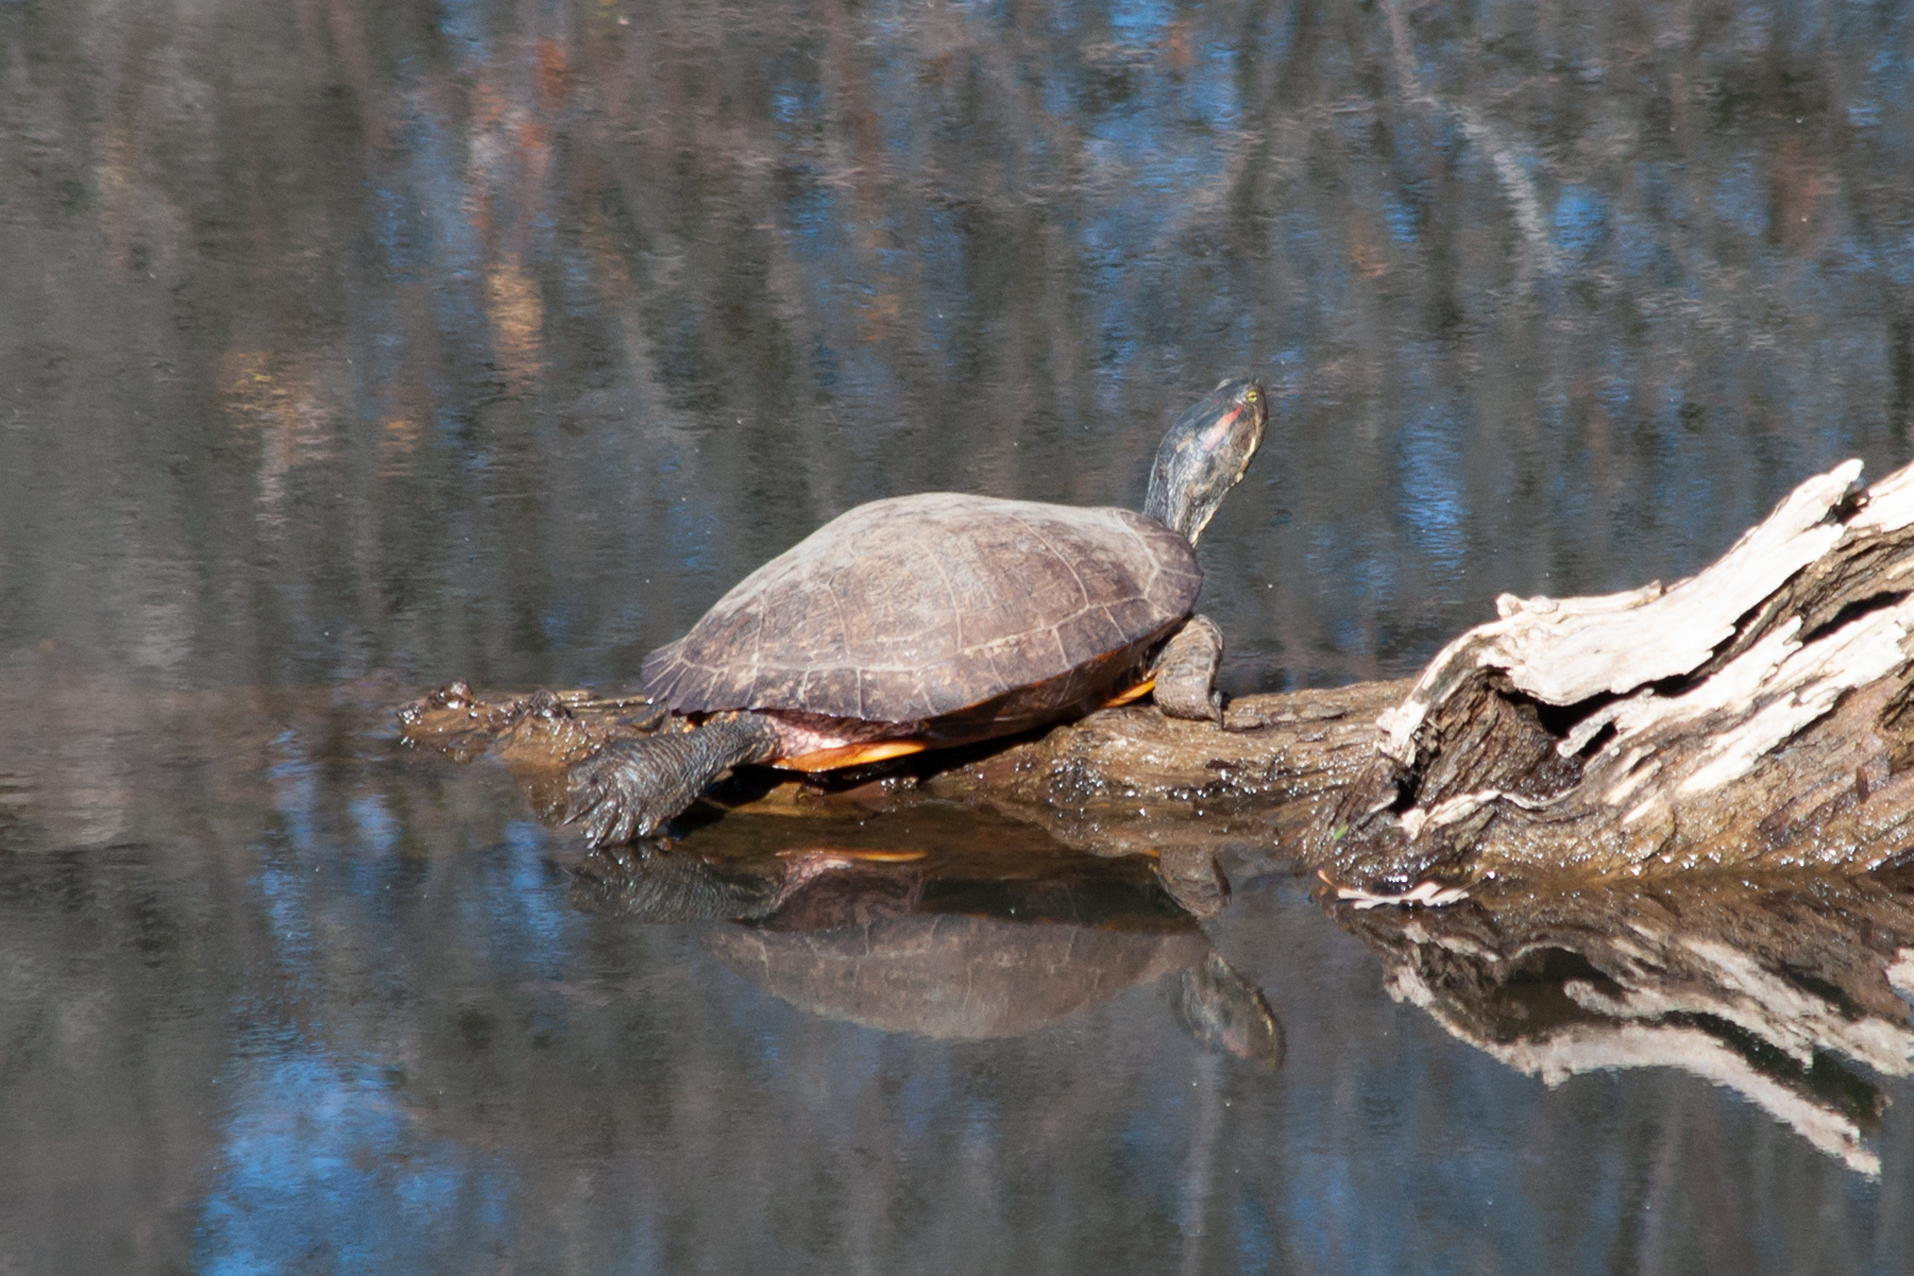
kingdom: Animalia
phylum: Chordata
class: Testudines
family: Emydidae
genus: Trachemys
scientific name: Trachemys scripta
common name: Slider
